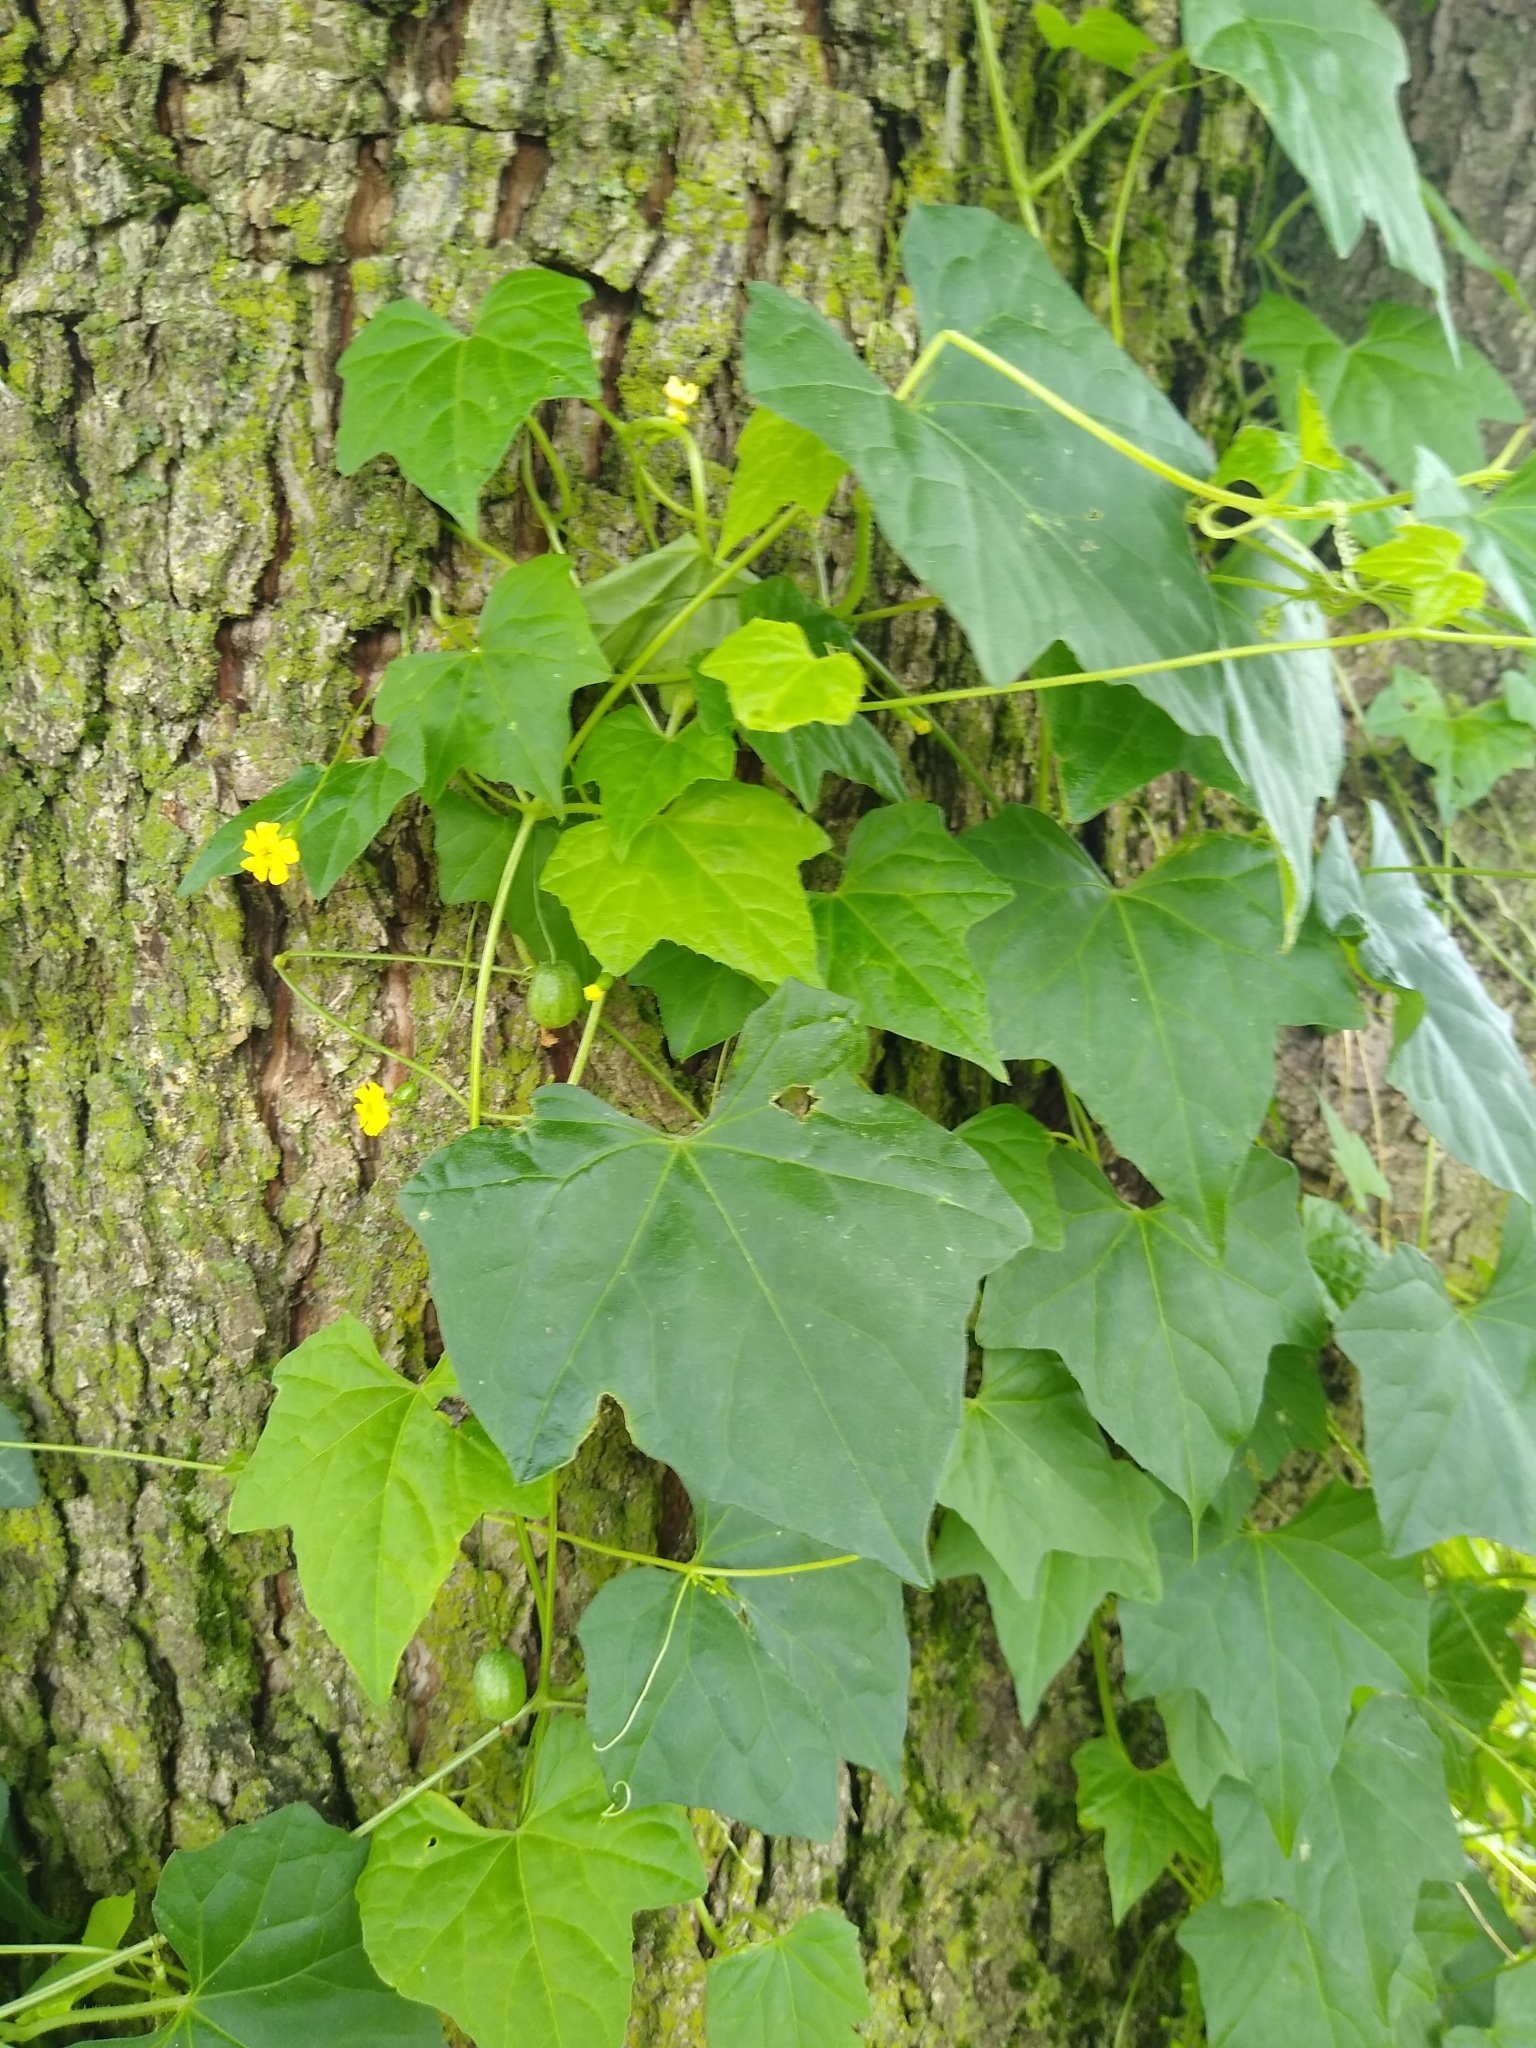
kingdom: Plantae
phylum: Tracheophyta
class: Magnoliopsida
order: Cucurbitales
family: Cucurbitaceae
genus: Melothria
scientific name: Melothria pendula
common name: Creeping-cucumber
